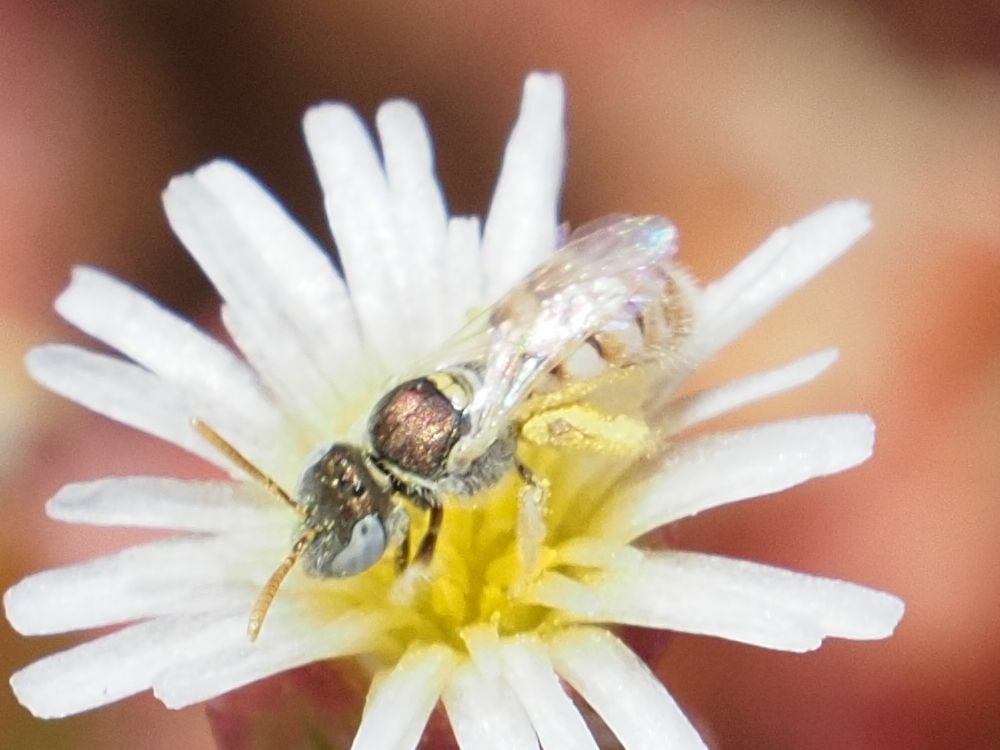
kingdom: Animalia
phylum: Arthropoda
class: Insecta
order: Hymenoptera
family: Halictidae
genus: Nomioides
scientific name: Nomioides deceptor
